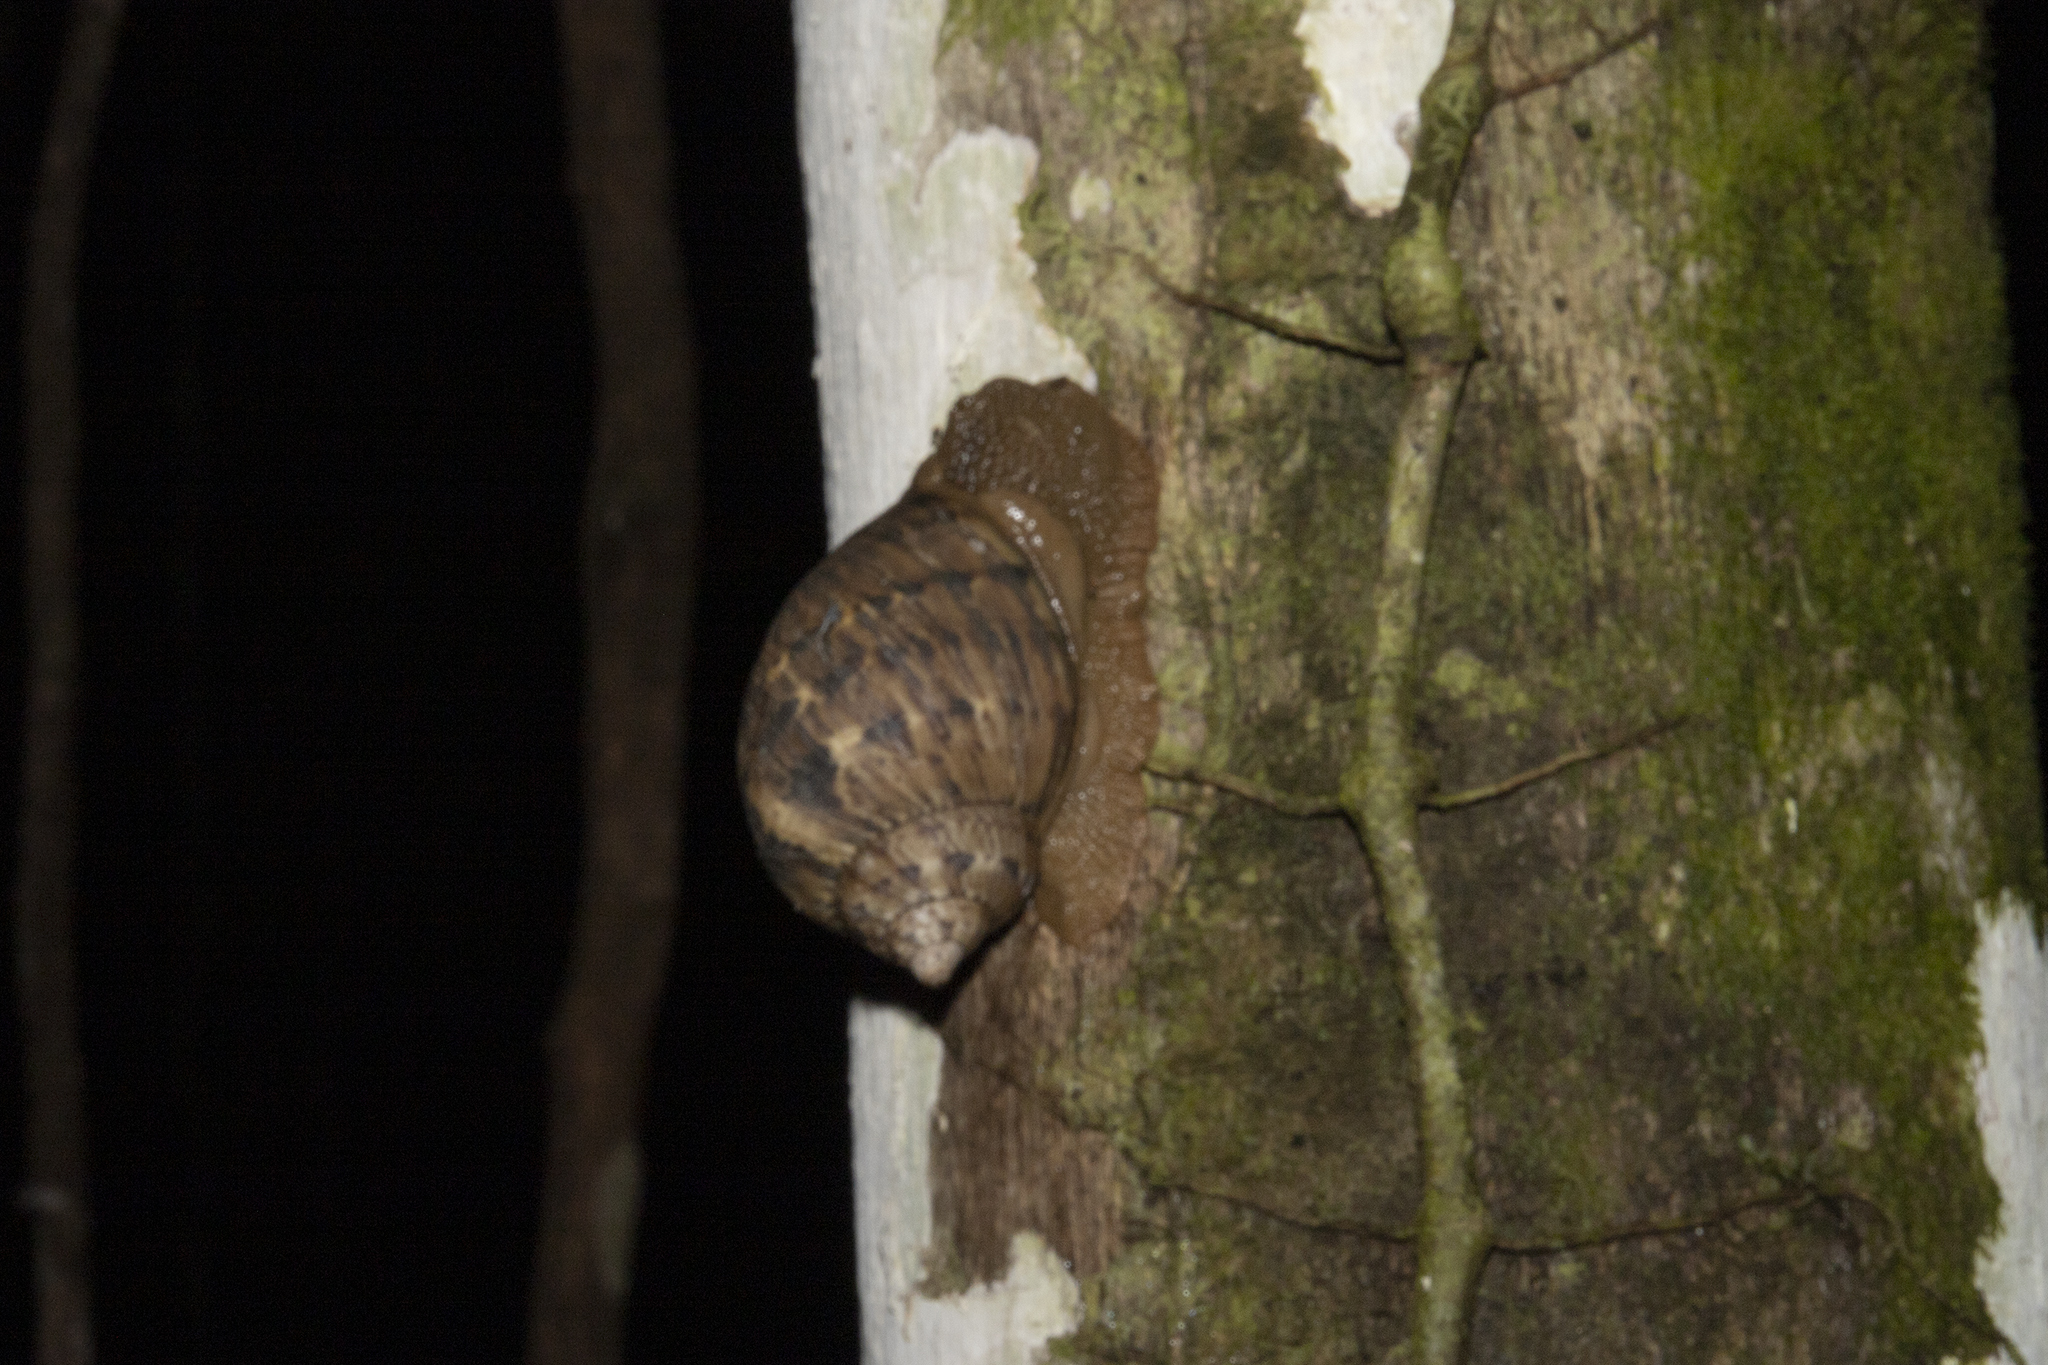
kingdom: Animalia
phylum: Mollusca
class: Gastropoda
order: Stylommatophora
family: Orthalicidae
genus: Sultana
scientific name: Sultana sultana
